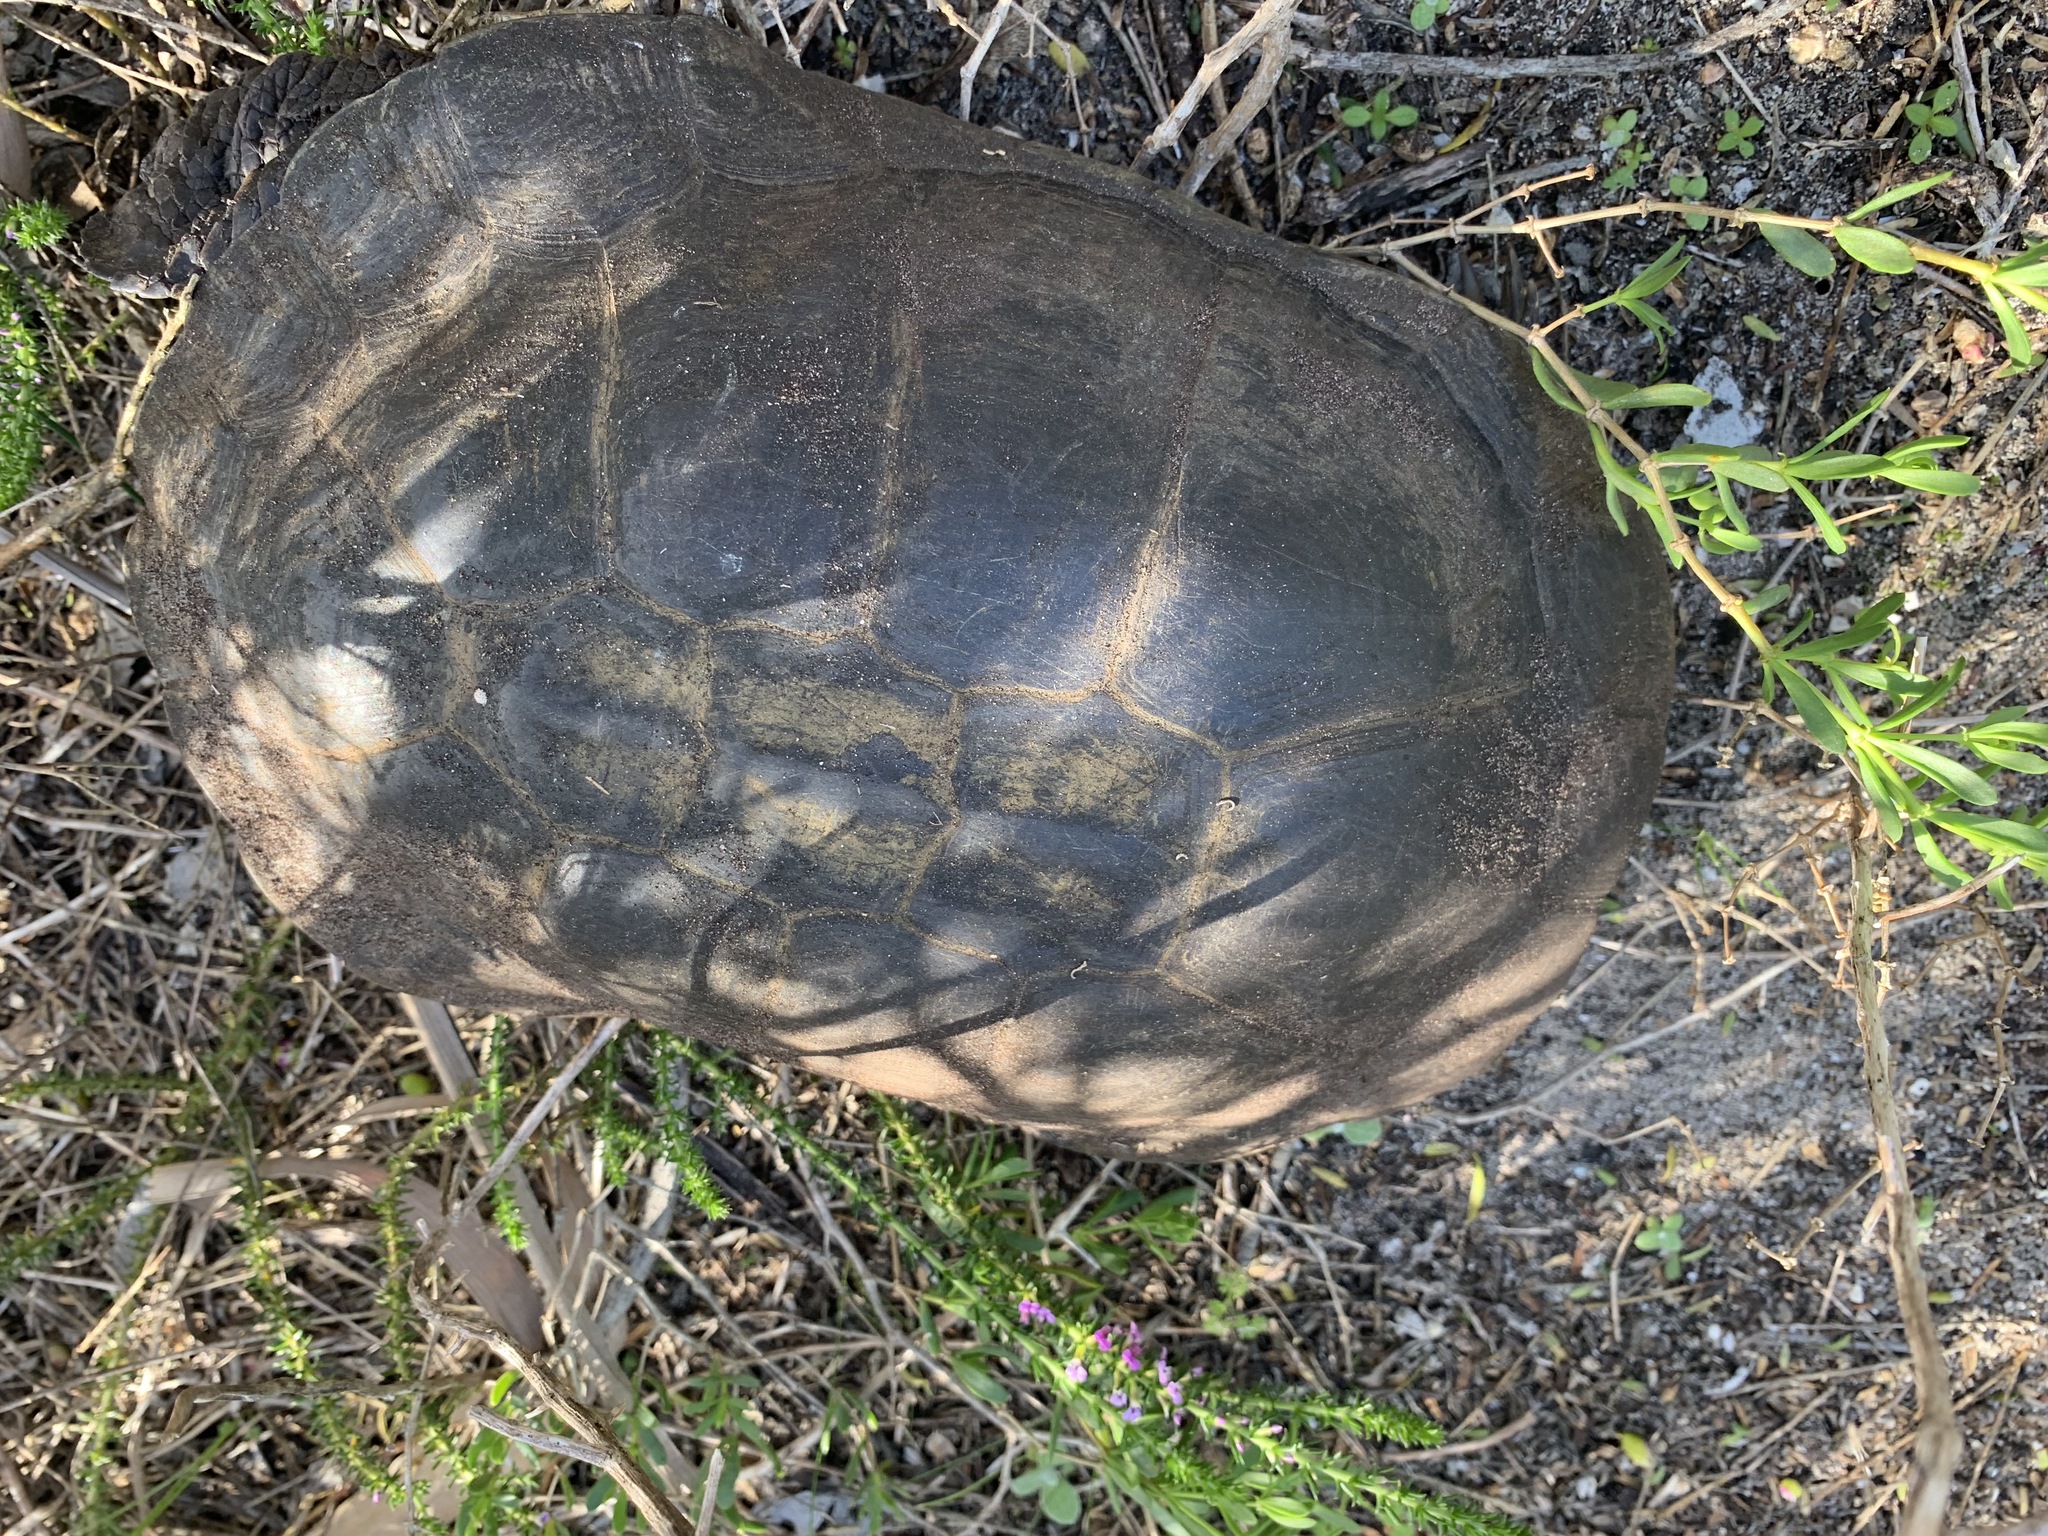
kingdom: Animalia
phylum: Chordata
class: Testudines
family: Pelomedusidae
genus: Pelomedusa
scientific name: Pelomedusa galeata
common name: South african helmeted terrapin
